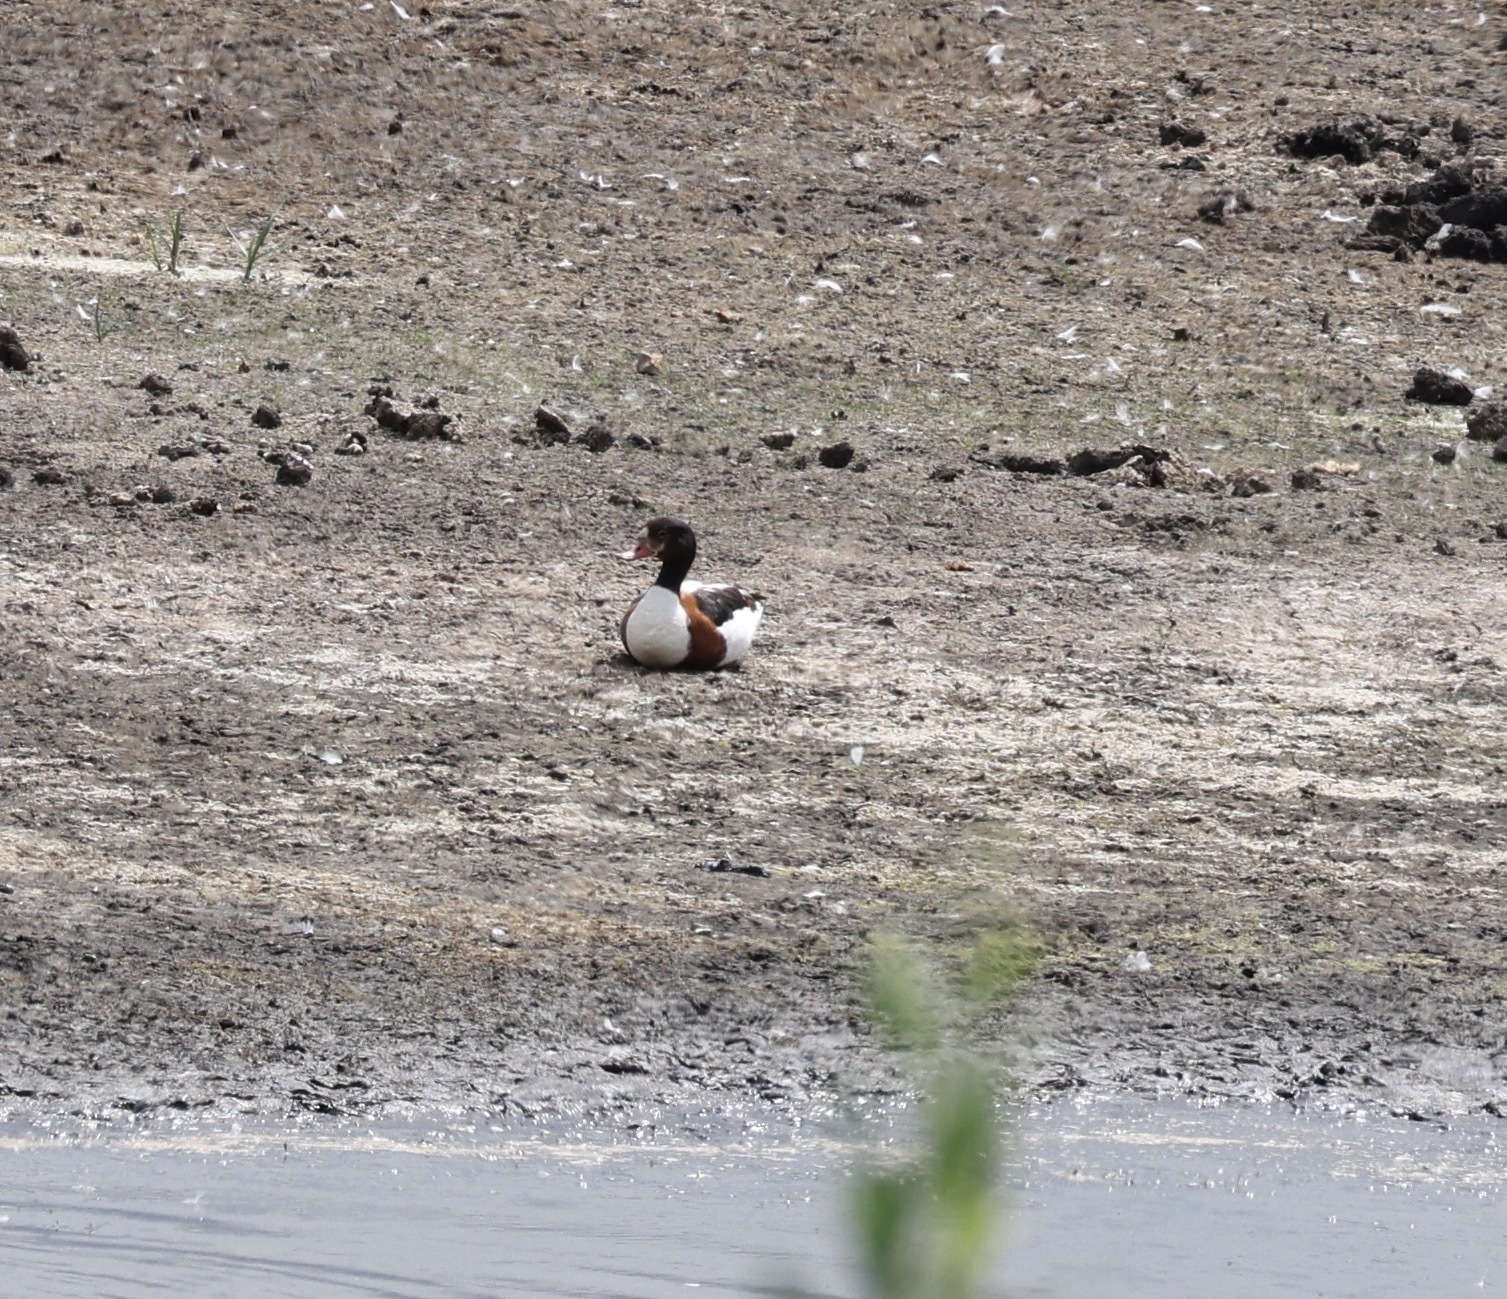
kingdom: Animalia
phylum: Chordata
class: Aves
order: Anseriformes
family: Anatidae
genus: Tadorna
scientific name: Tadorna tadorna
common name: Common shelduck
